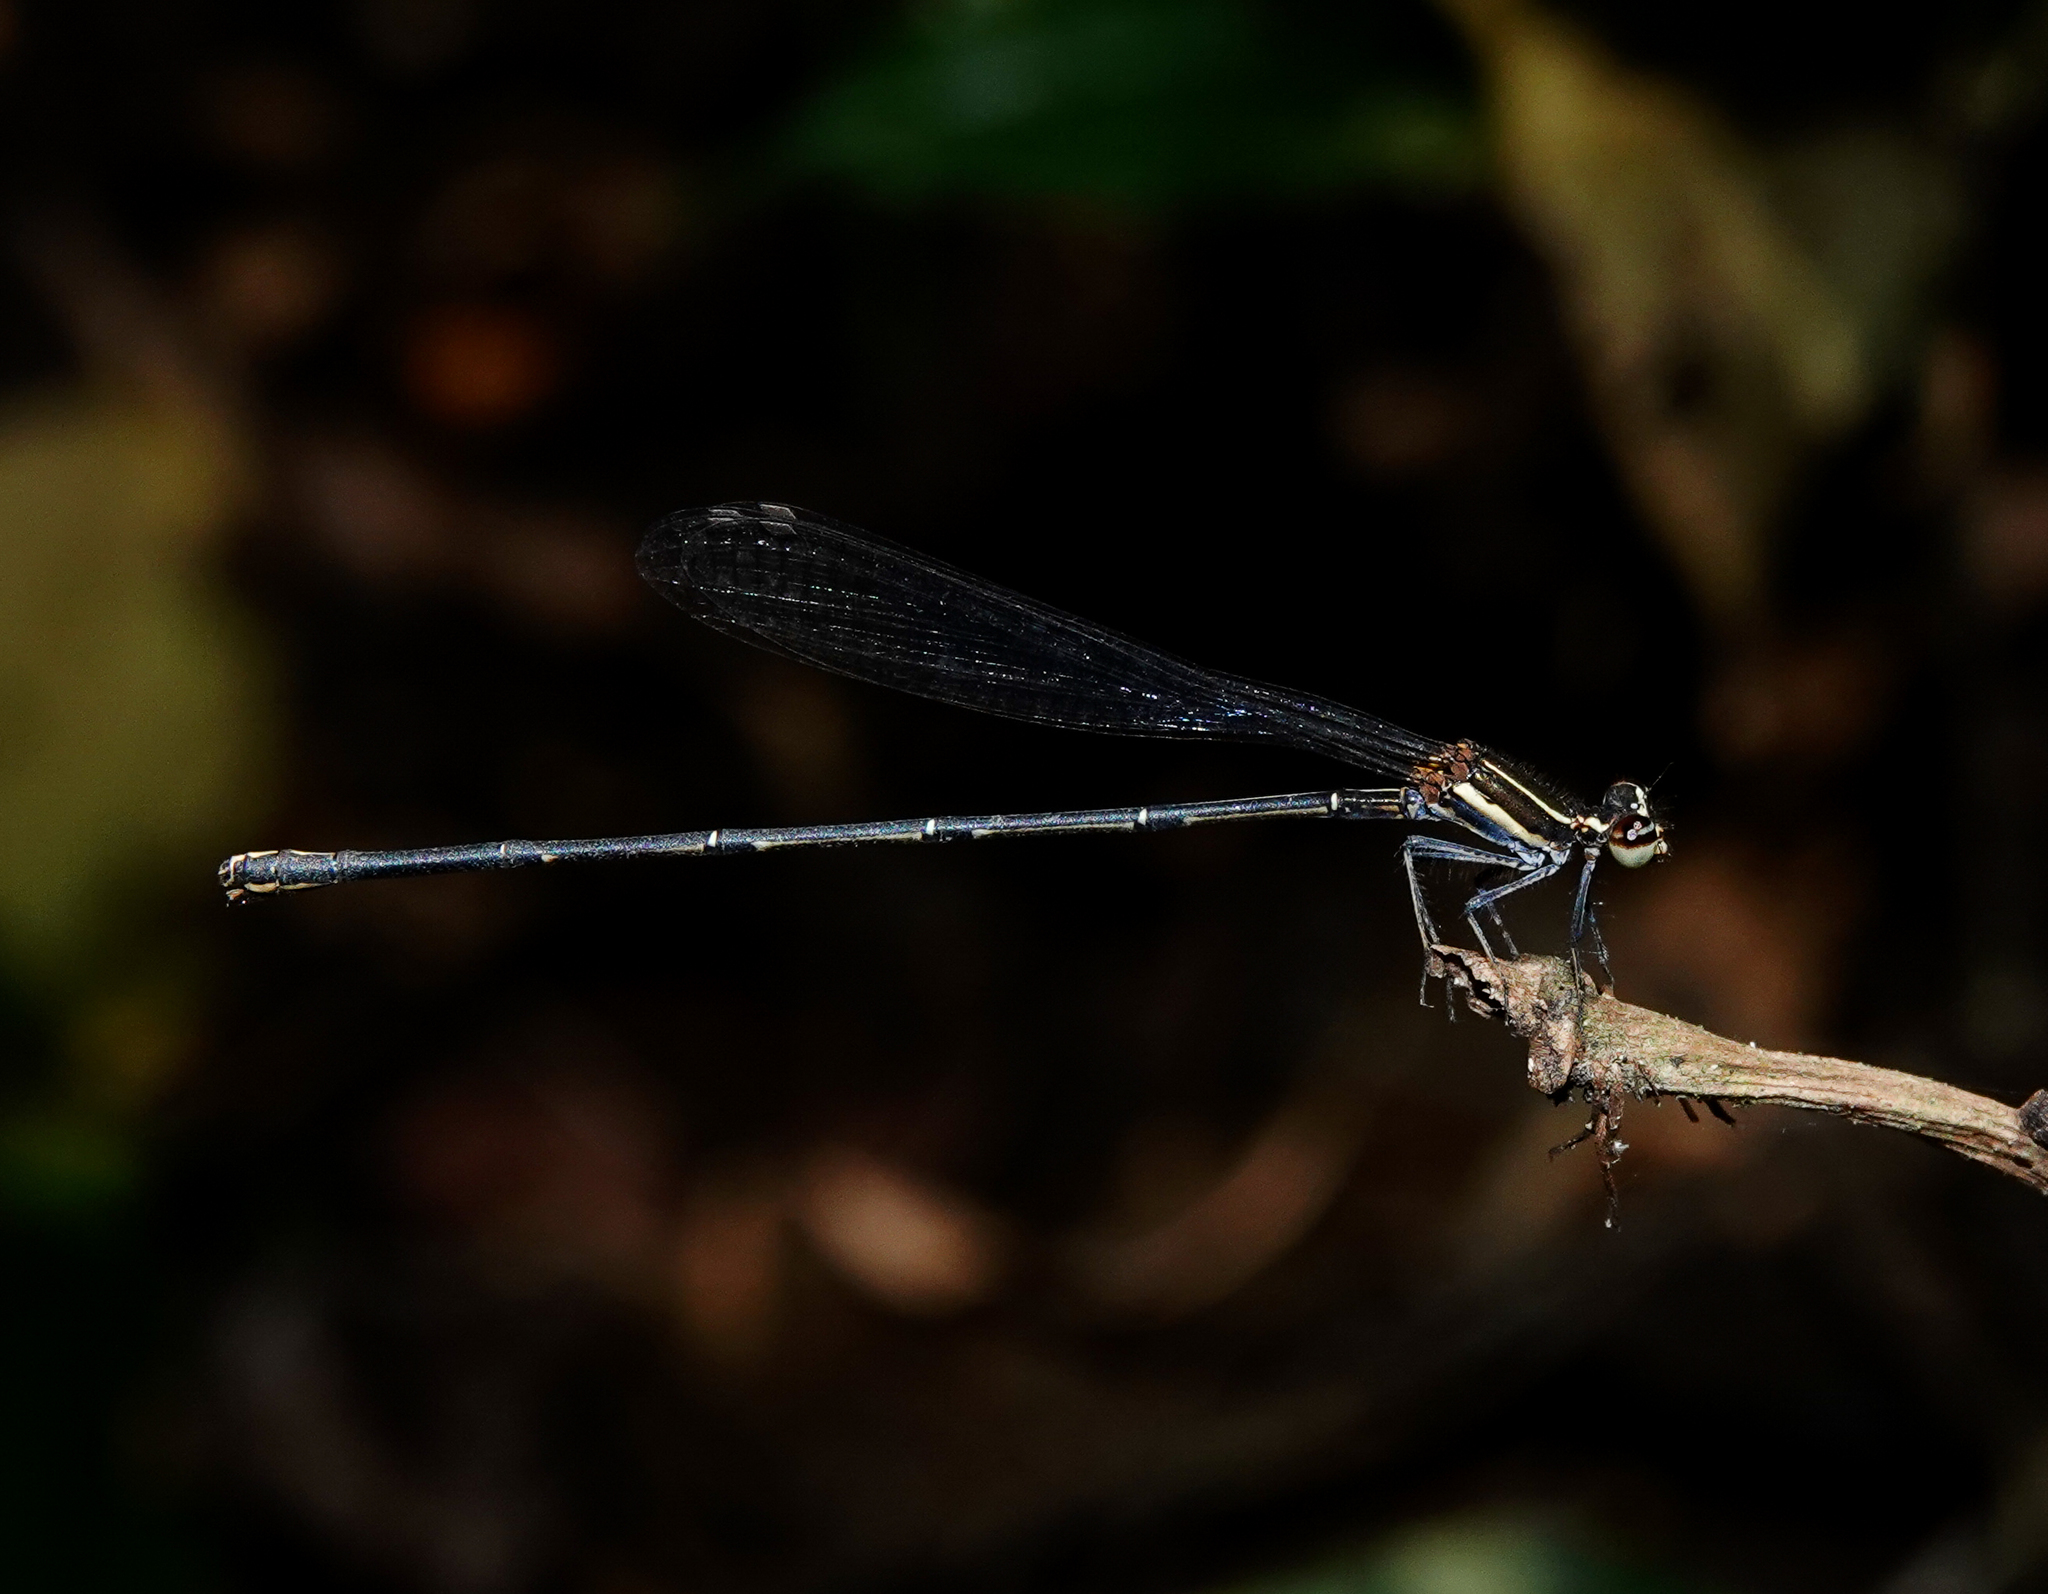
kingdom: Animalia
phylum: Arthropoda
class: Insecta
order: Odonata
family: Platycnemididae
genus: Prodasineura
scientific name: Prodasineura verticalis
